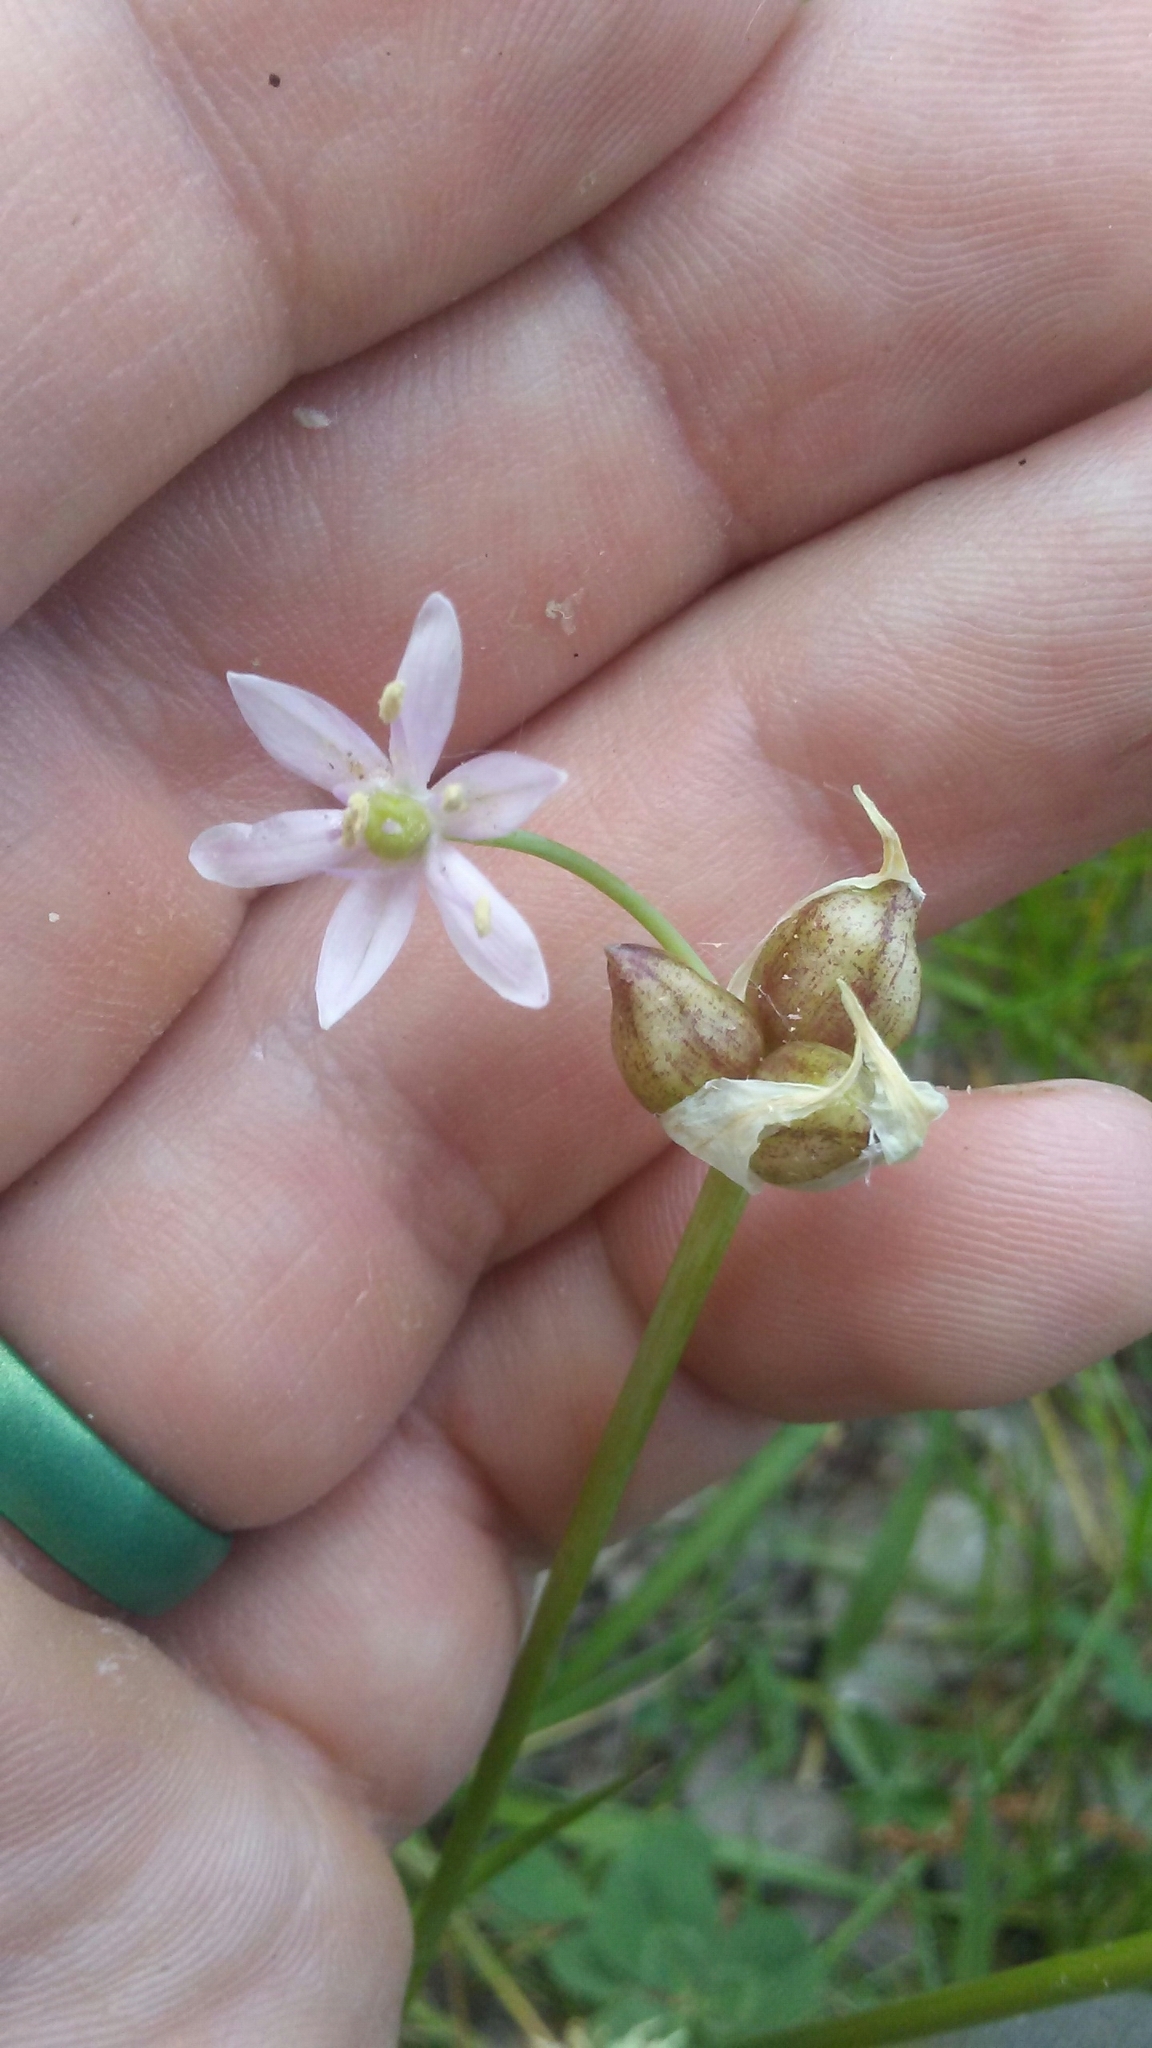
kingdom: Plantae
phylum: Tracheophyta
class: Liliopsida
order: Asparagales
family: Amaryllidaceae
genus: Allium
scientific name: Allium canadense
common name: Meadow garlic
